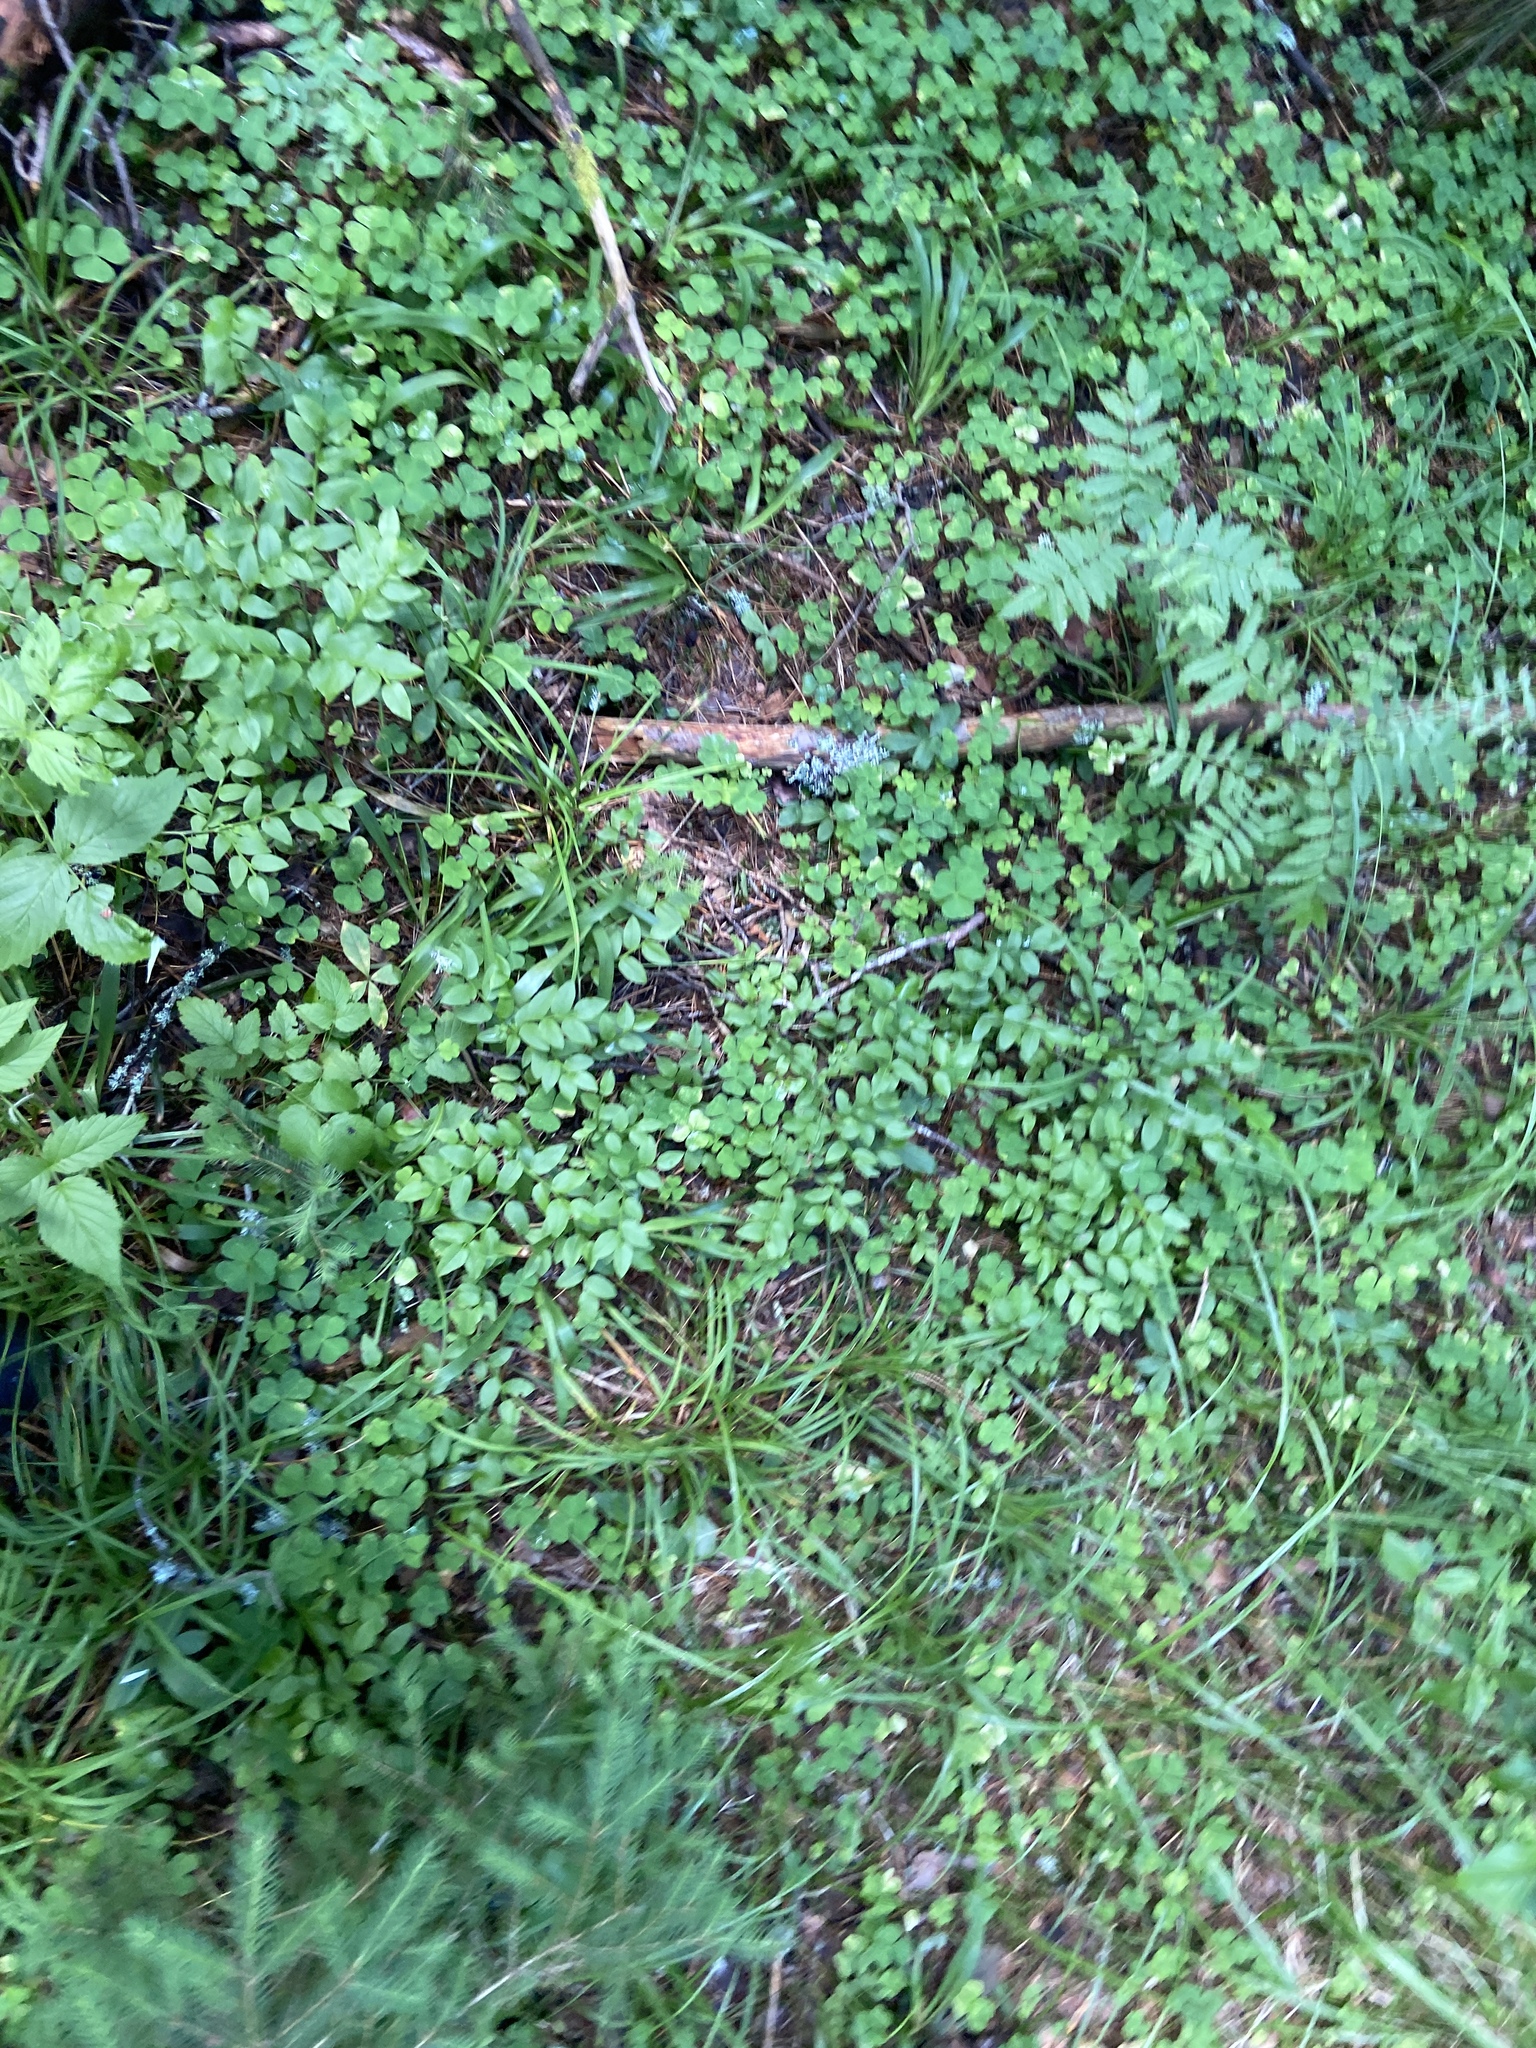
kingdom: Plantae
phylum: Tracheophyta
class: Magnoliopsida
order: Ericales
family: Ericaceae
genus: Vaccinium
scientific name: Vaccinium myrtillus
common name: Bilberry
